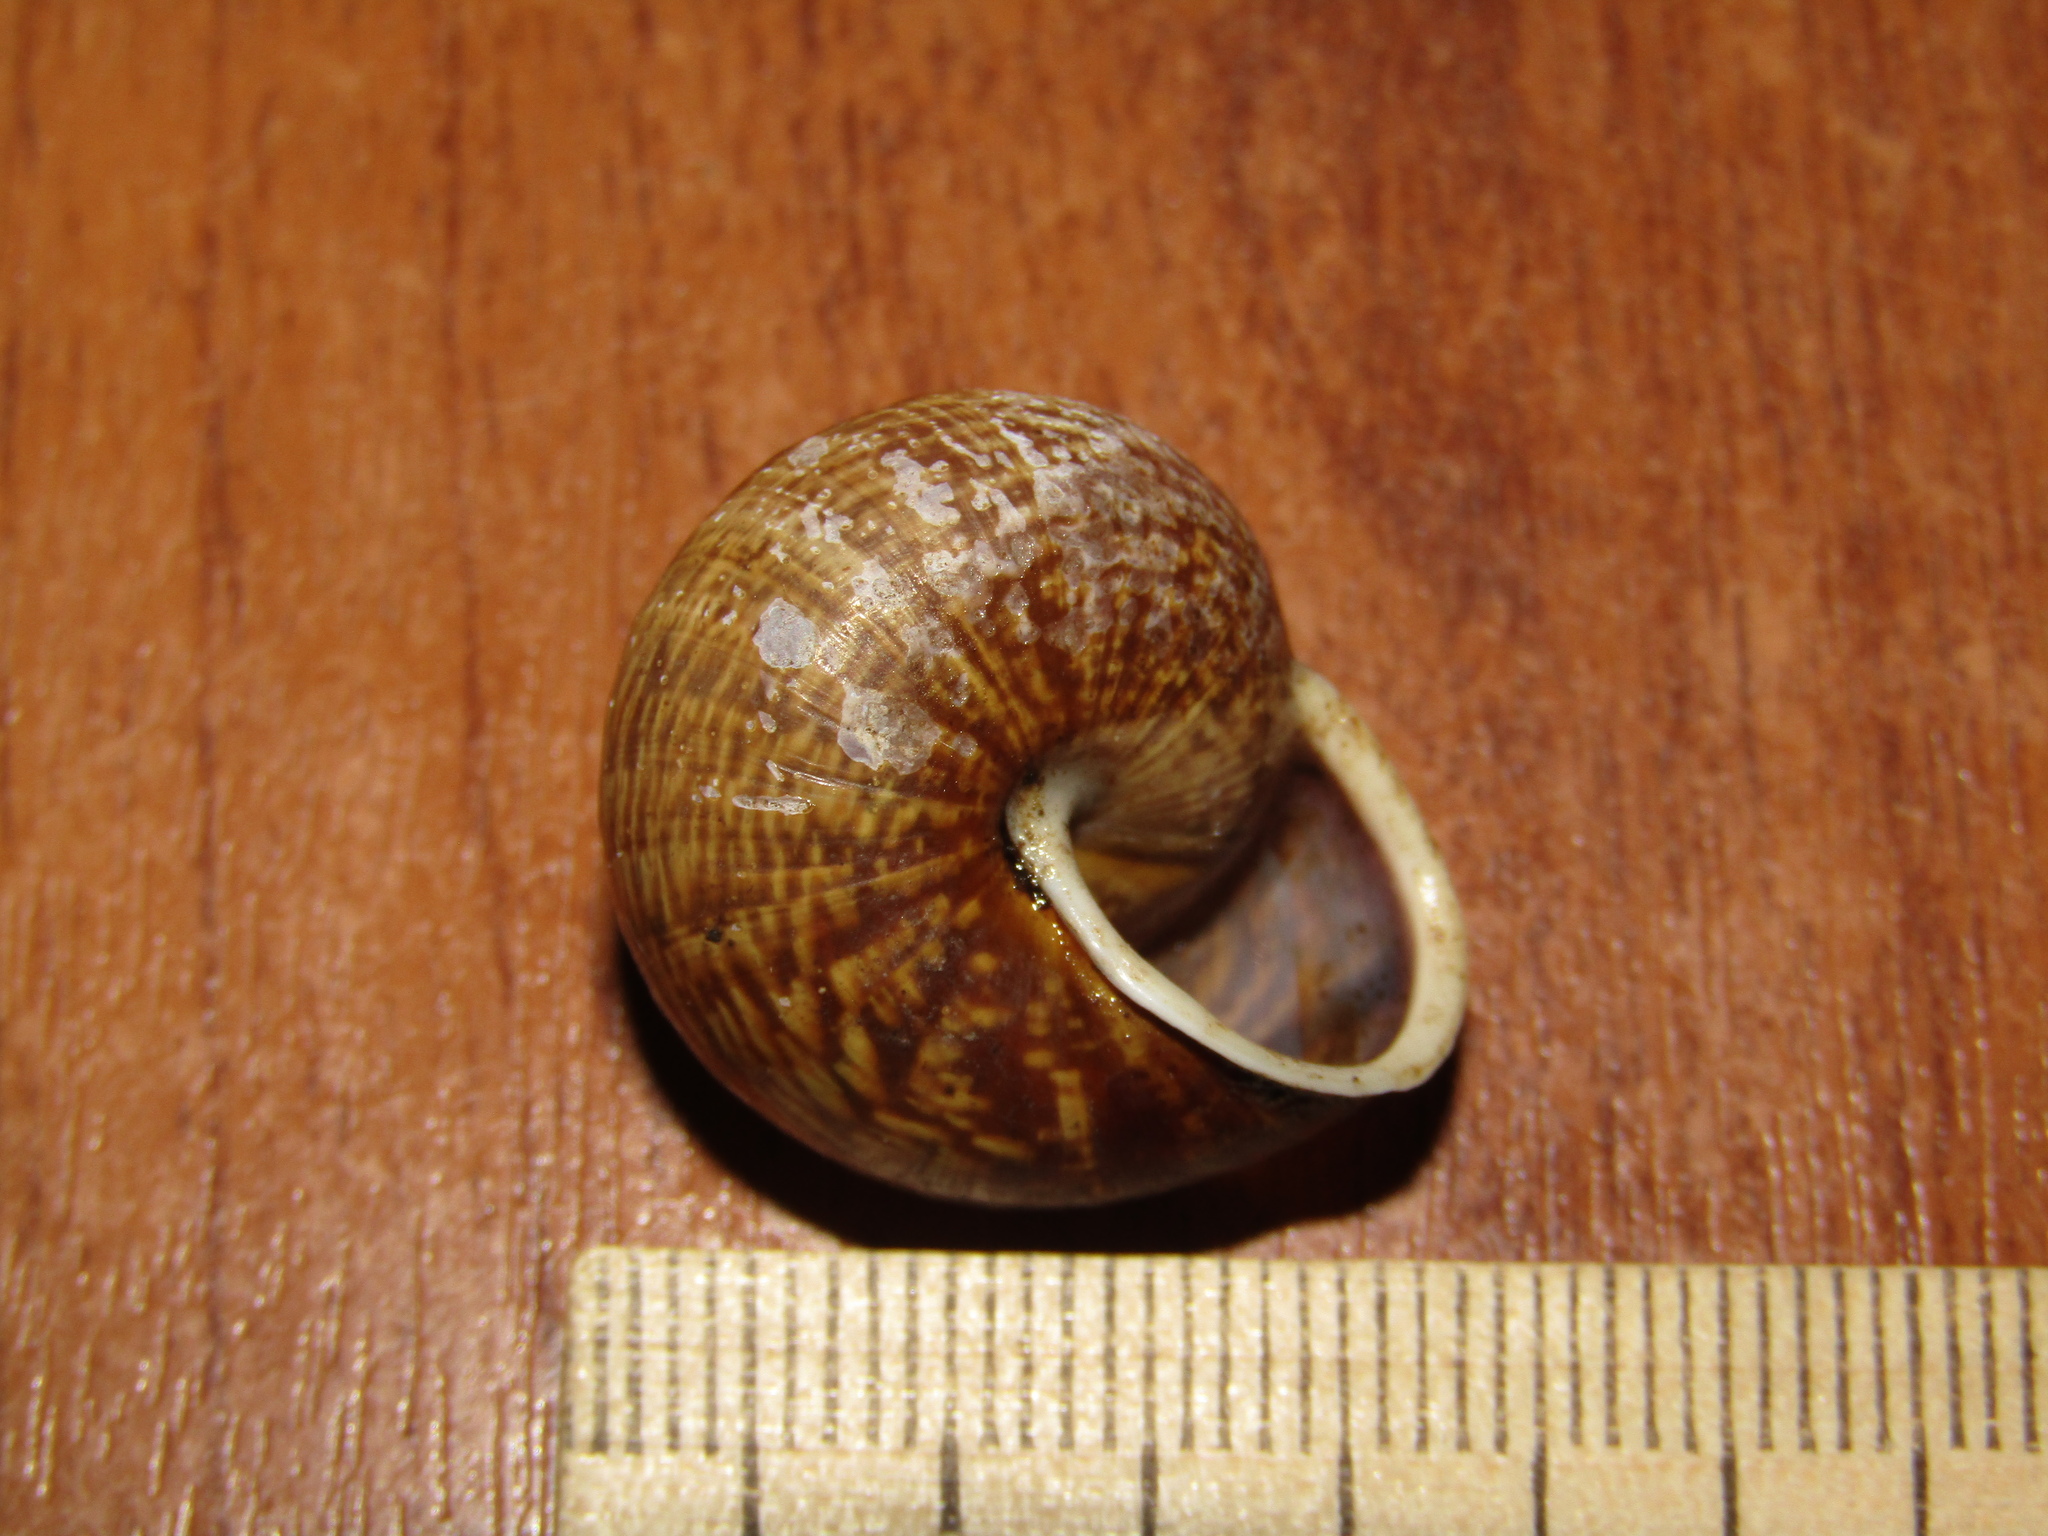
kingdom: Animalia
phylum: Mollusca
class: Gastropoda
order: Stylommatophora
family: Helicidae
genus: Arianta
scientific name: Arianta arbustorum
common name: Copse snail
